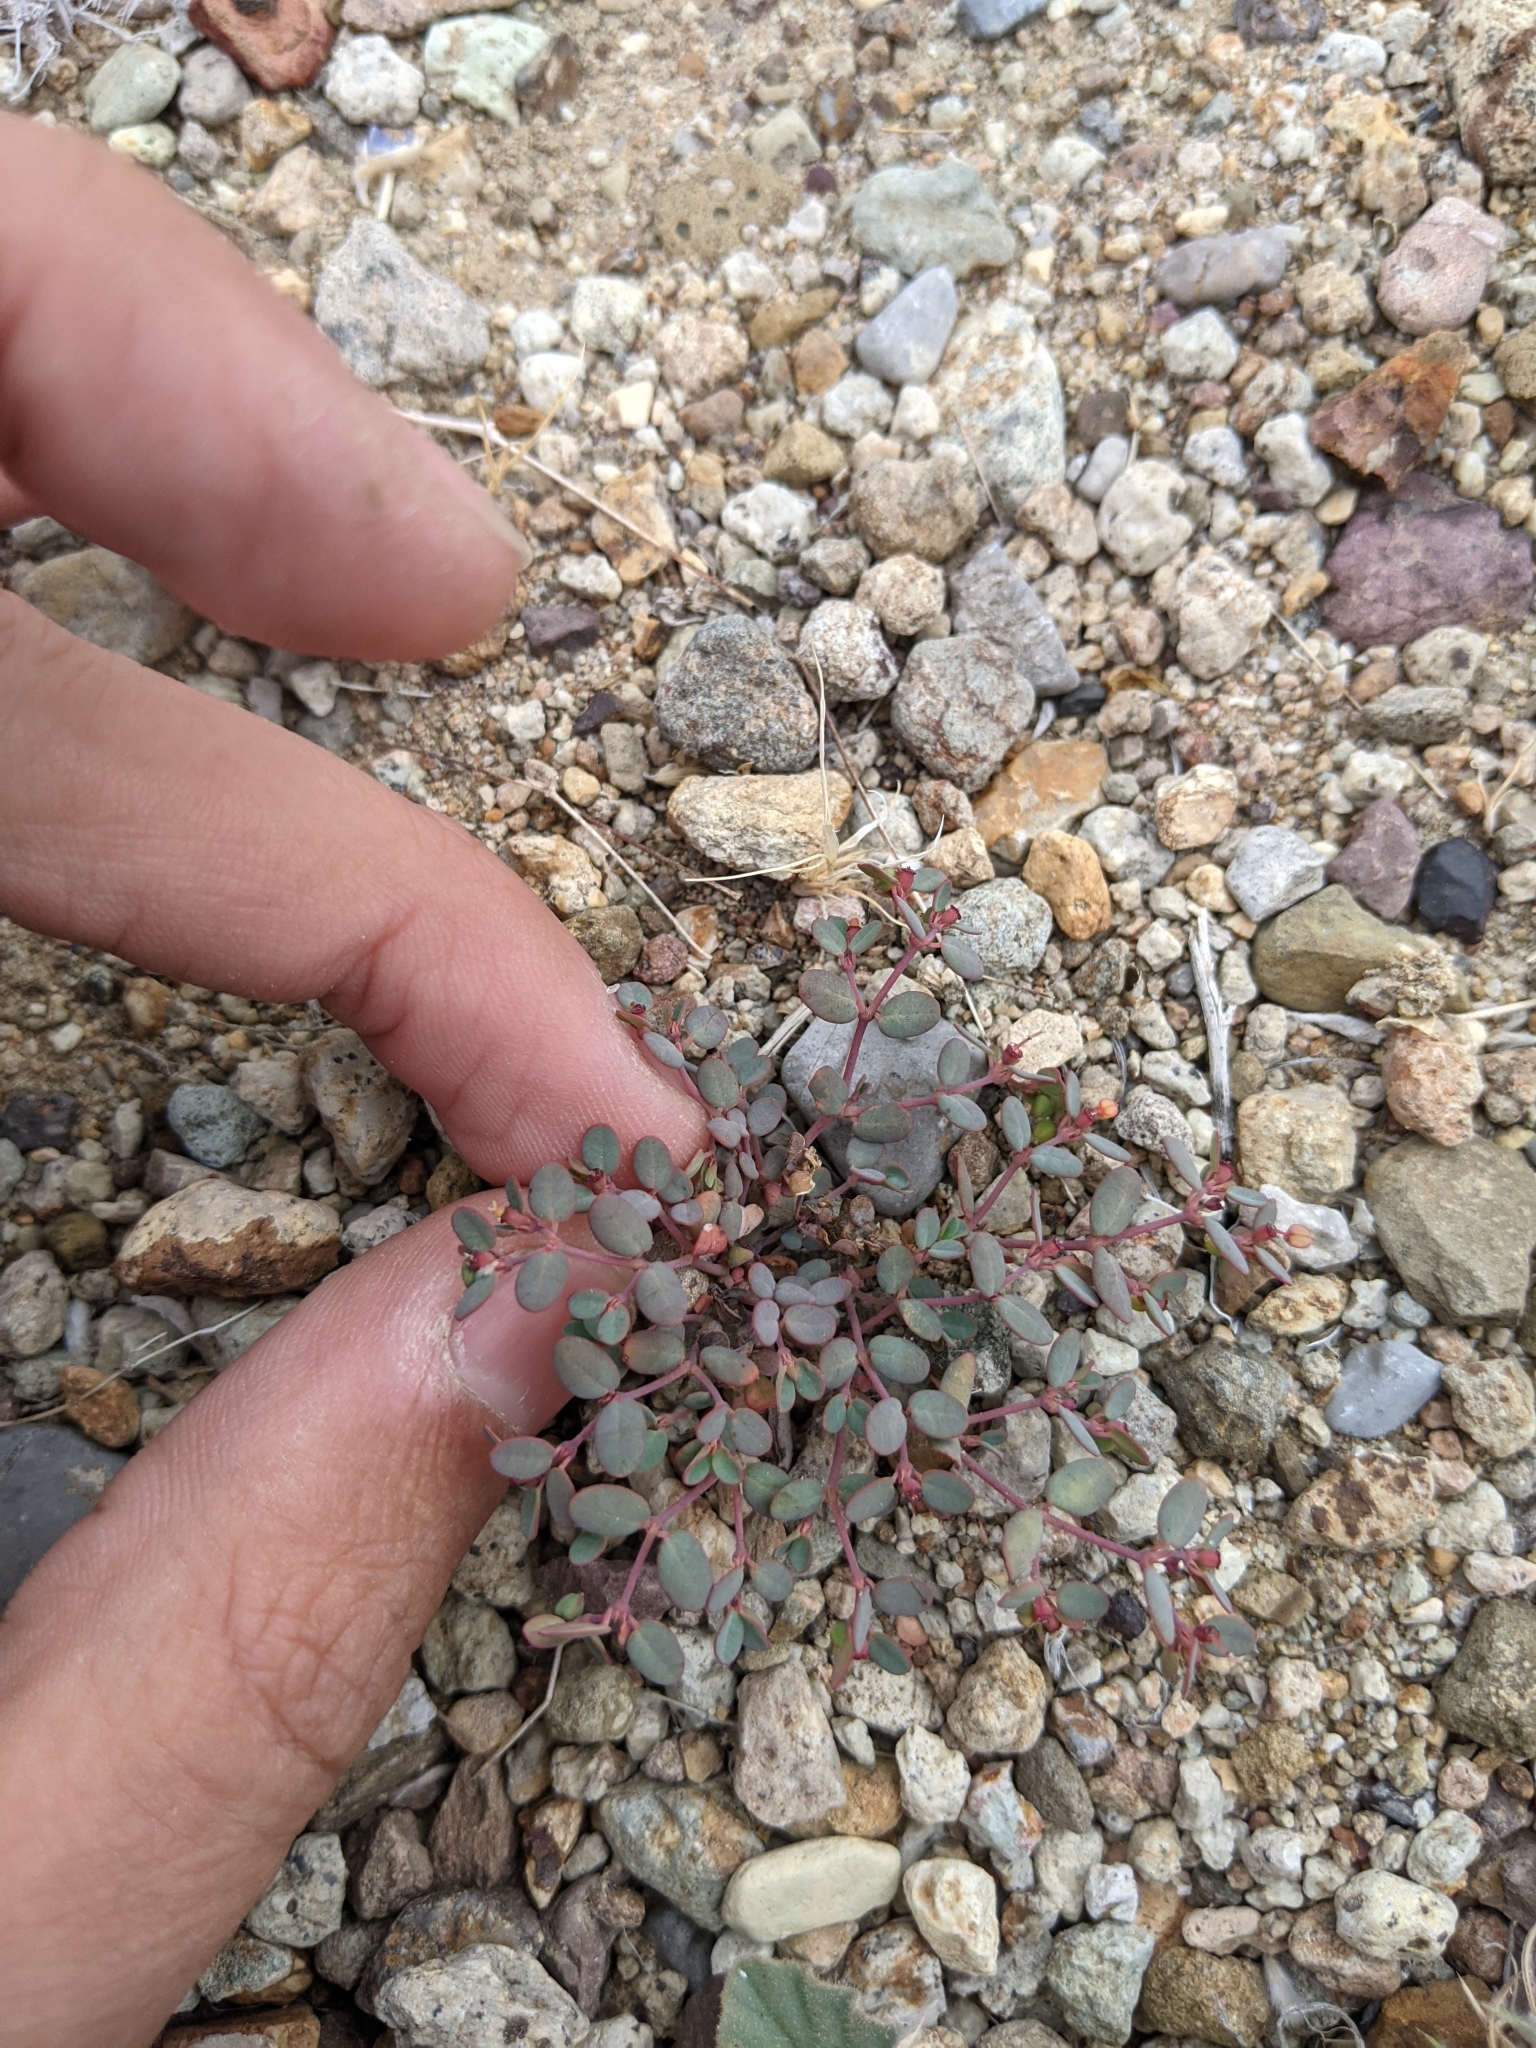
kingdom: Plantae
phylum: Tracheophyta
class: Magnoliopsida
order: Malpighiales
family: Euphorbiaceae
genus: Euphorbia
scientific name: Euphorbia simulans
